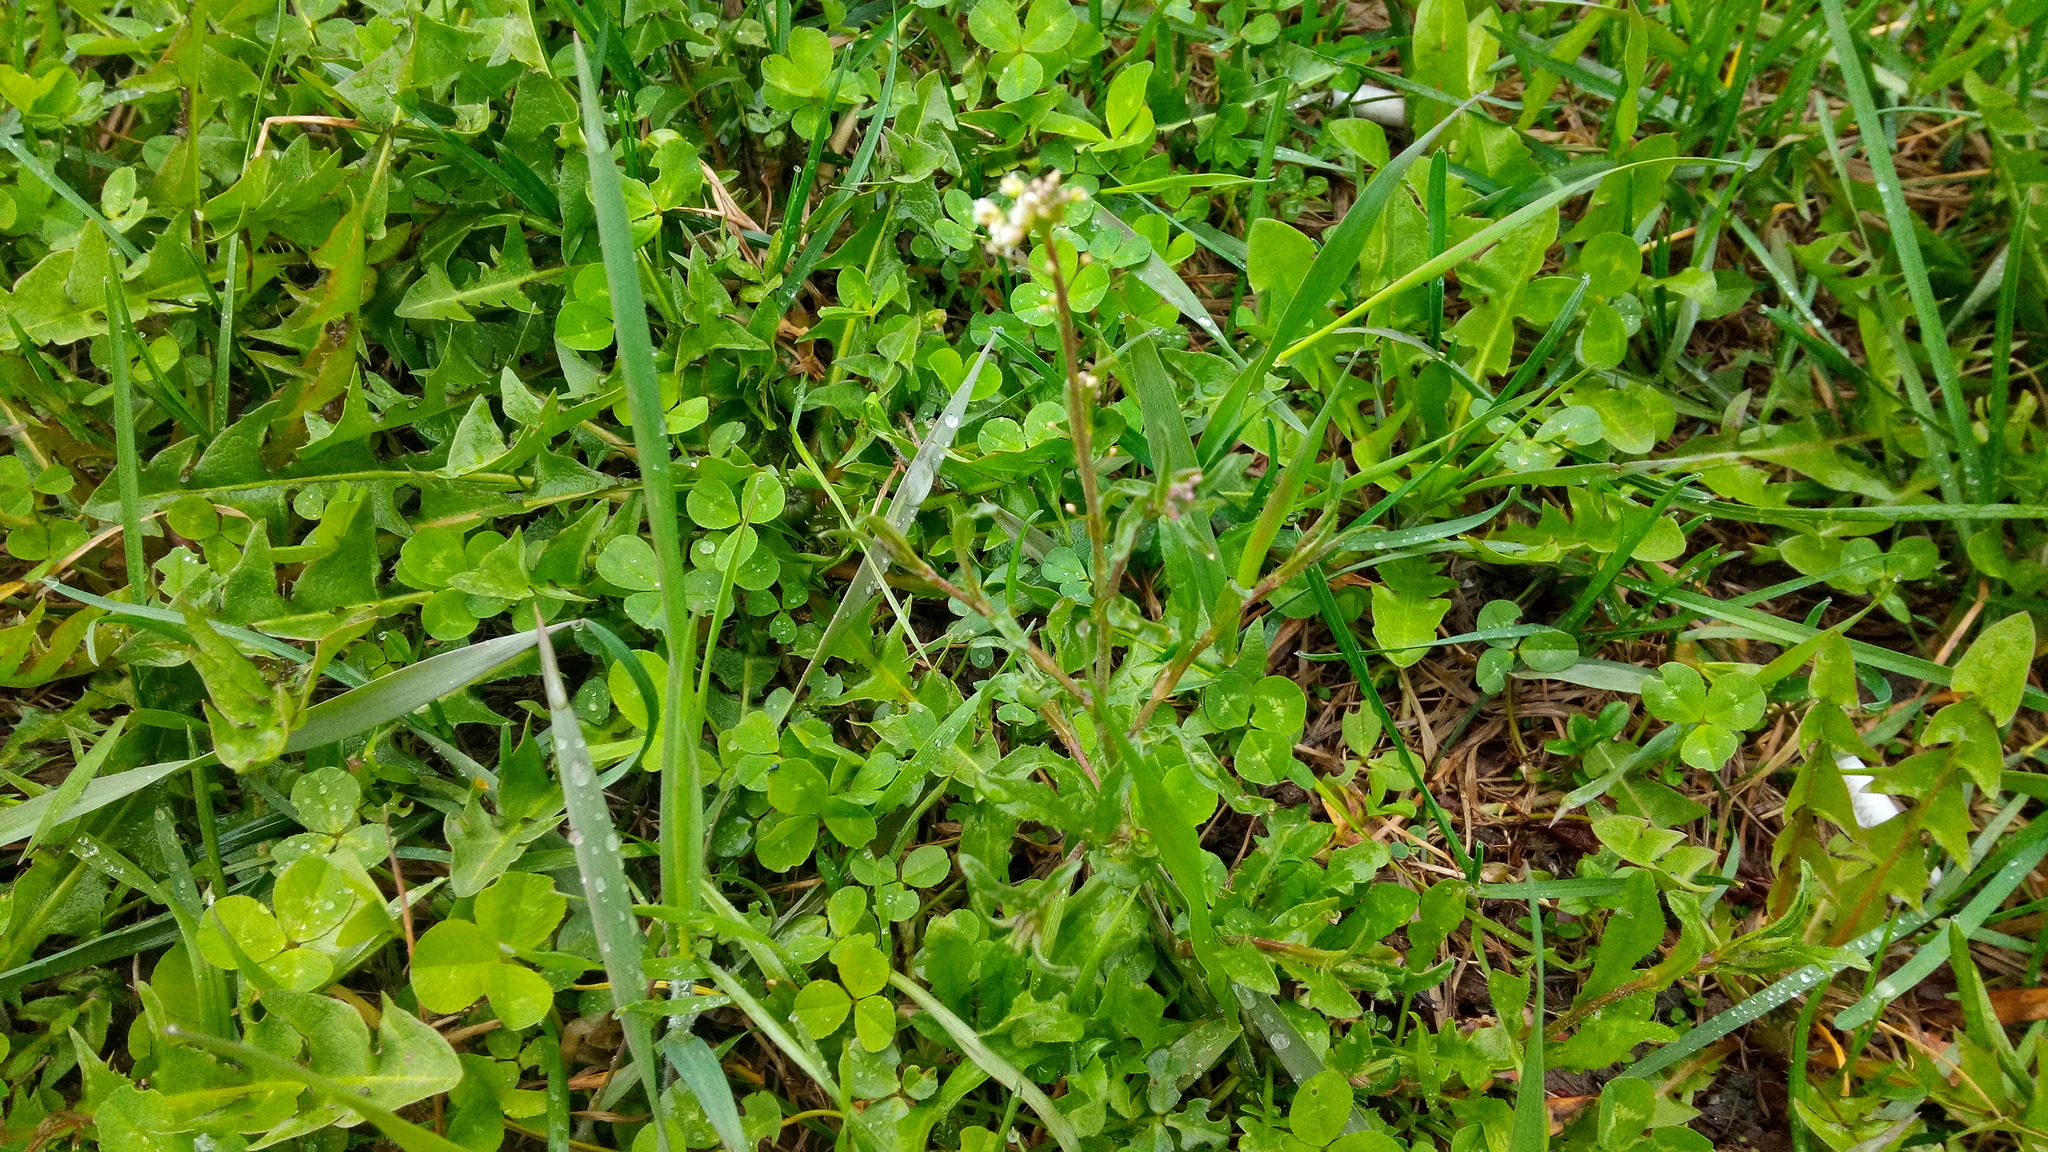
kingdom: Plantae
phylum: Tracheophyta
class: Magnoliopsida
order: Brassicales
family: Brassicaceae
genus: Capsella
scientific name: Capsella bursa-pastoris
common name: Shepherd's purse
